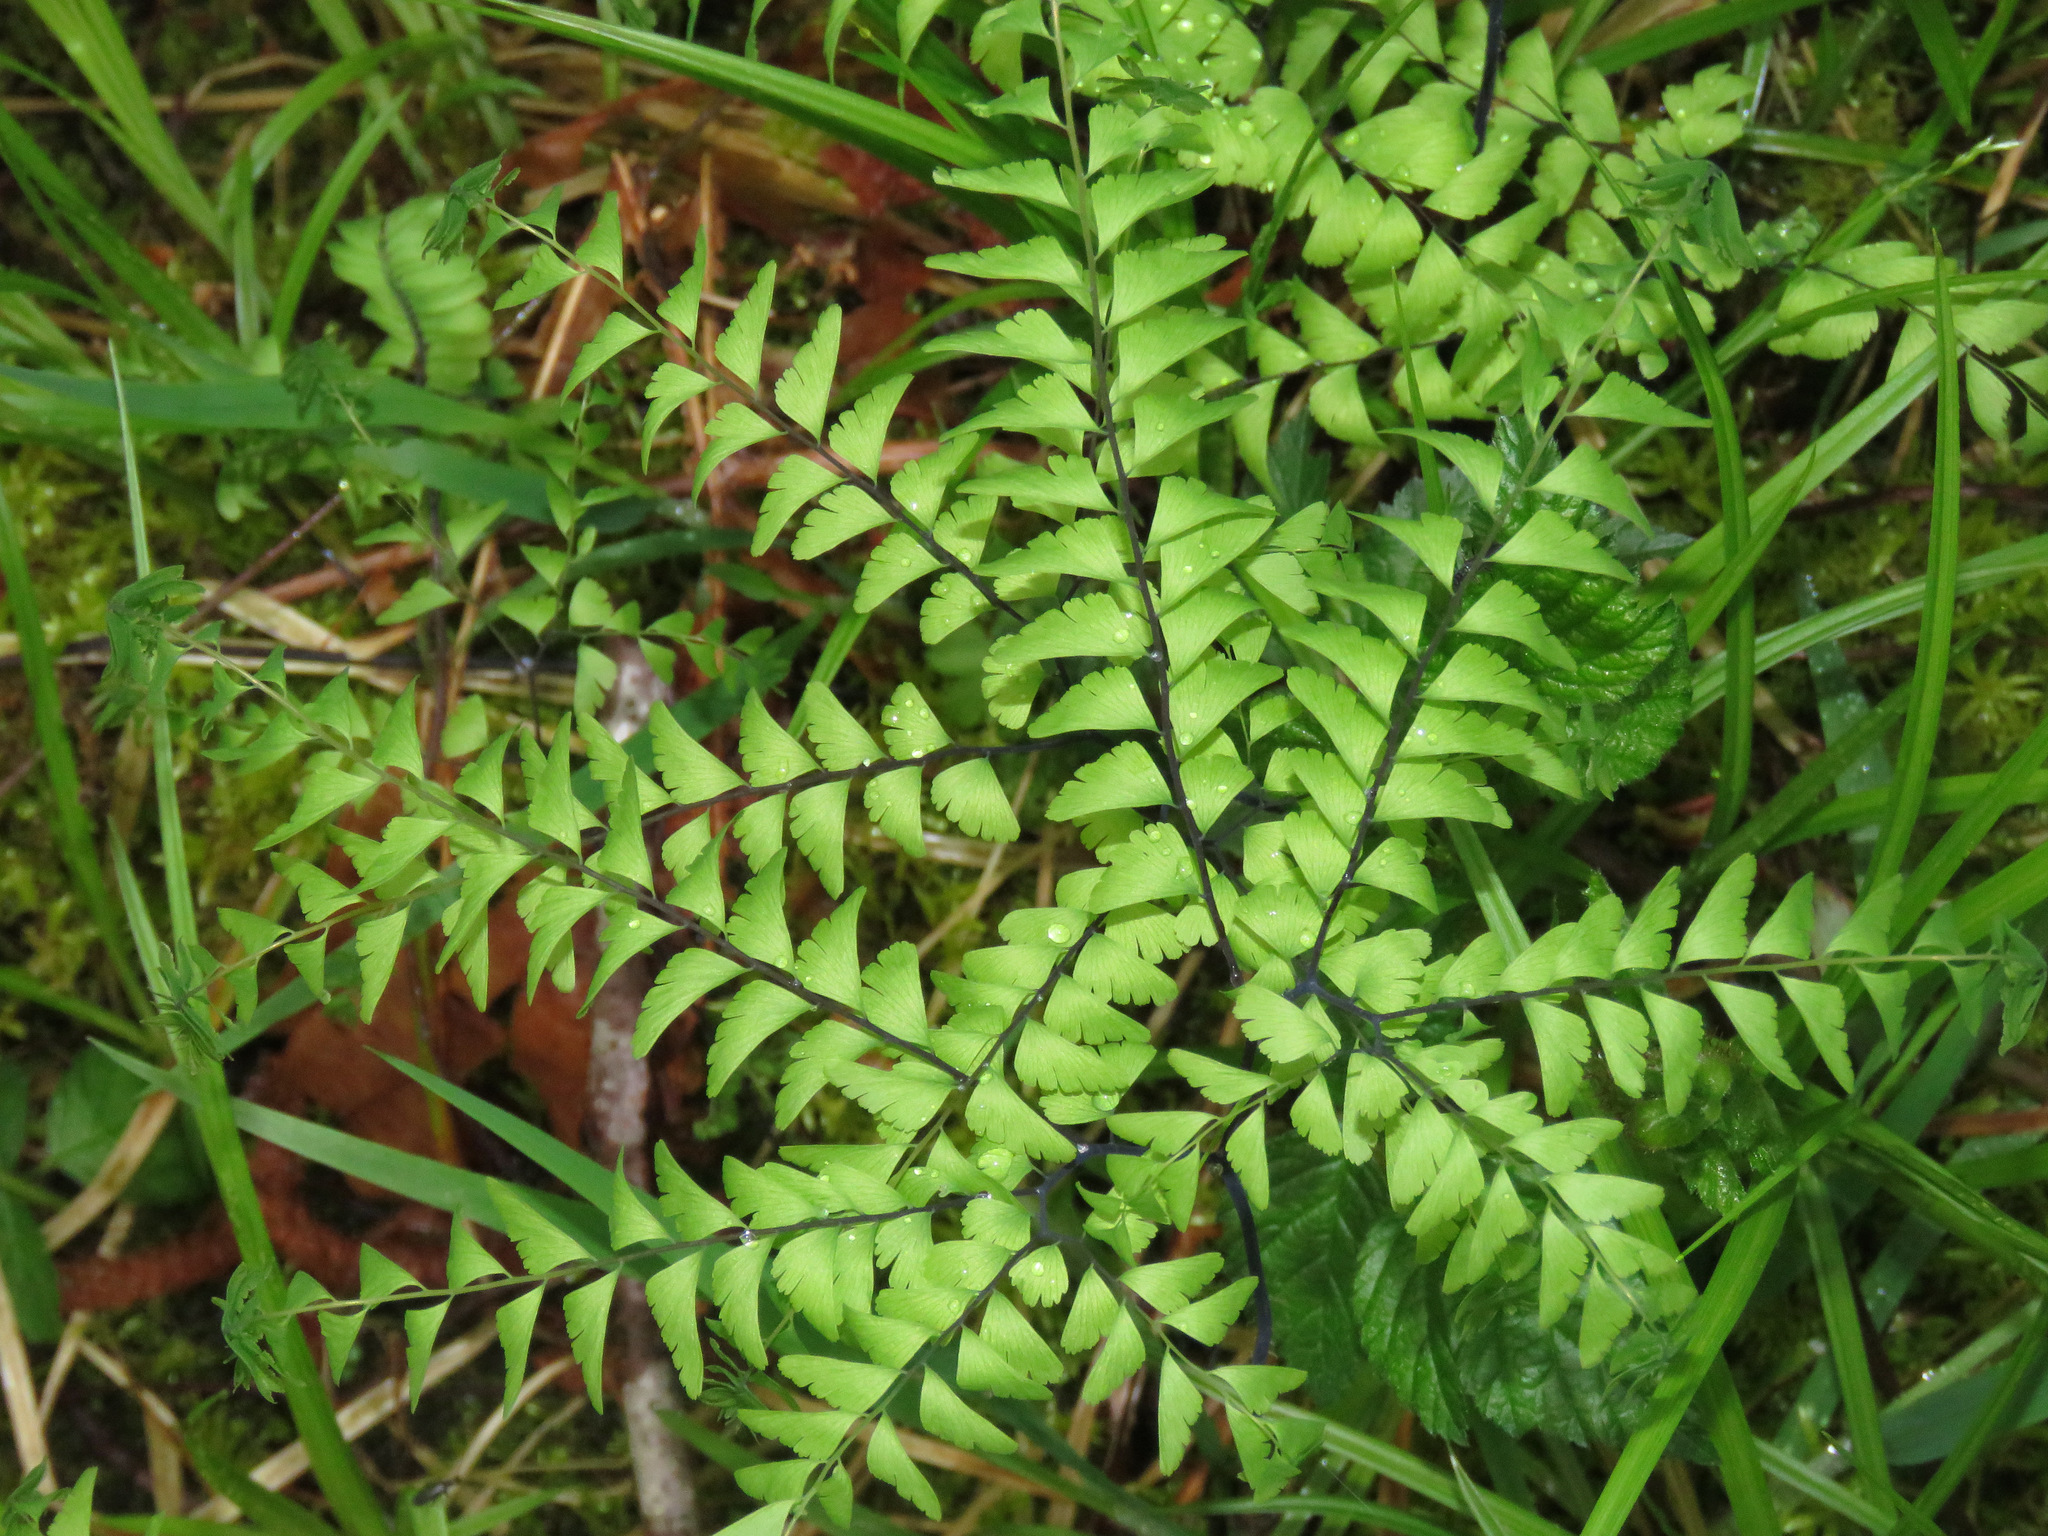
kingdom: Plantae
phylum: Tracheophyta
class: Polypodiopsida
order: Polypodiales
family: Pteridaceae
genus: Adiantum
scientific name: Adiantum aleuticum
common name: Aleutian maidenhair fern
